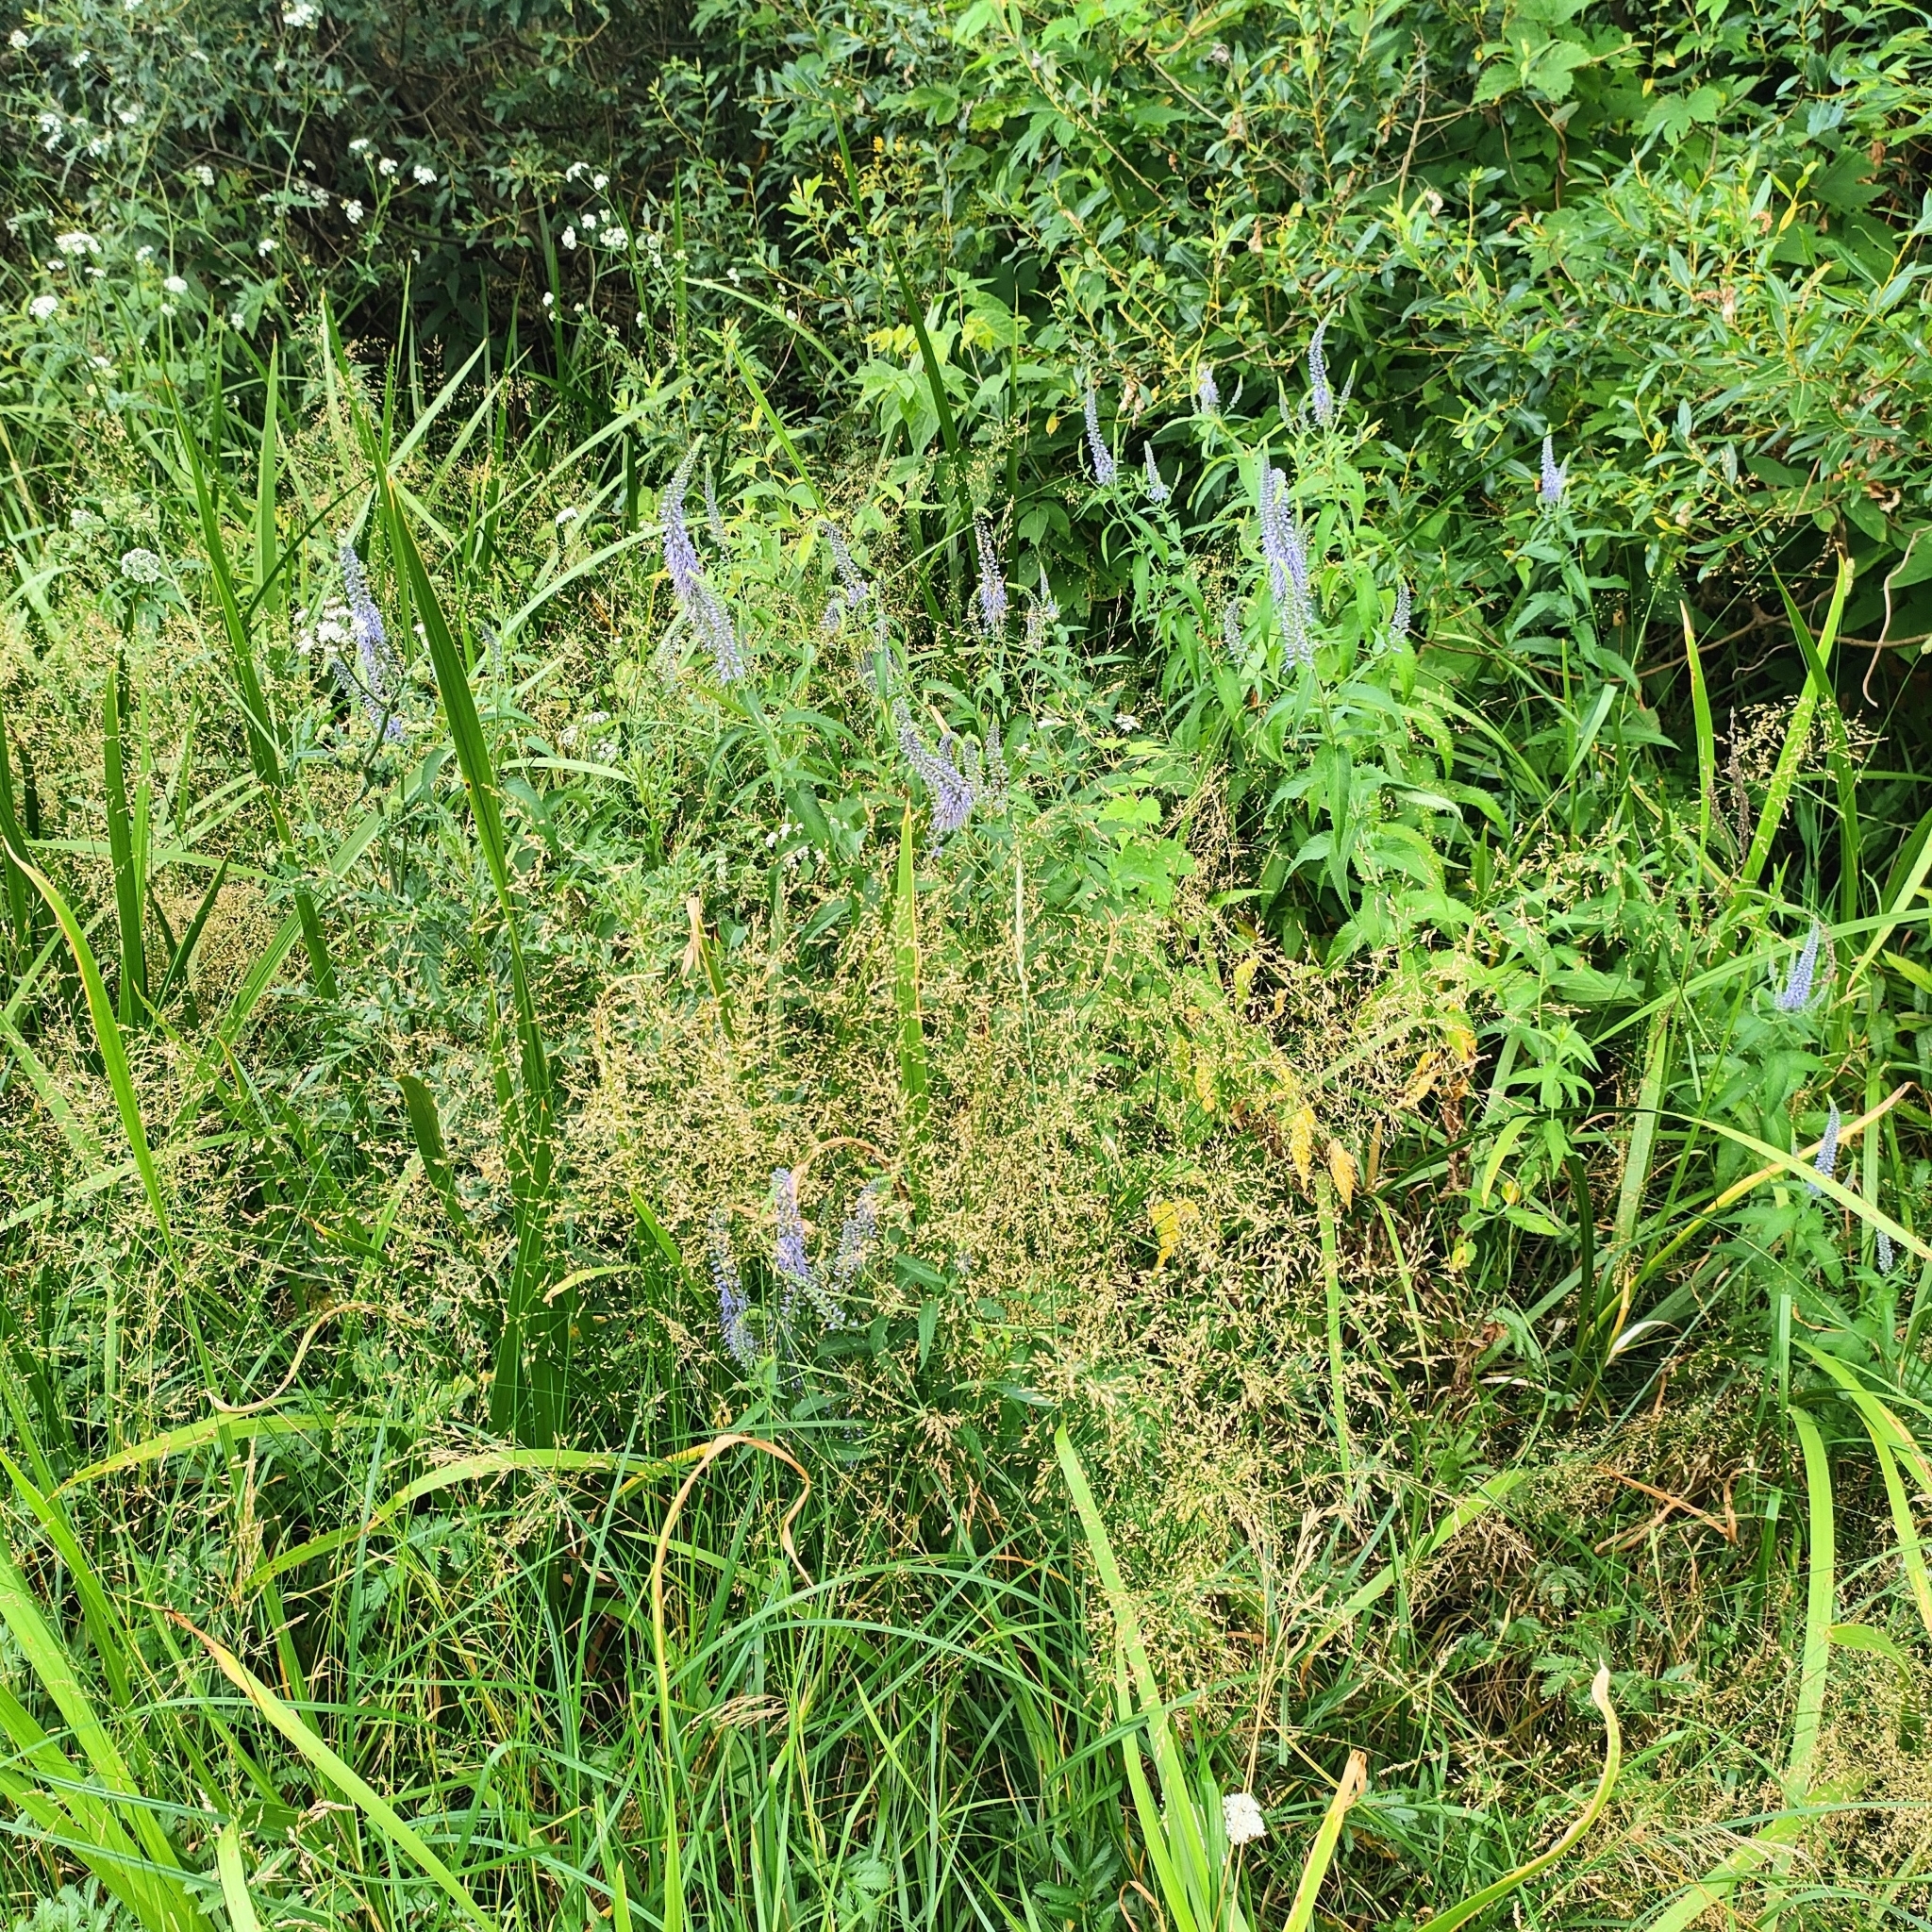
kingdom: Plantae
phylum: Tracheophyta
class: Magnoliopsida
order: Lamiales
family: Plantaginaceae
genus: Veronica
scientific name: Veronica longifolia
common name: Garden speedwell
